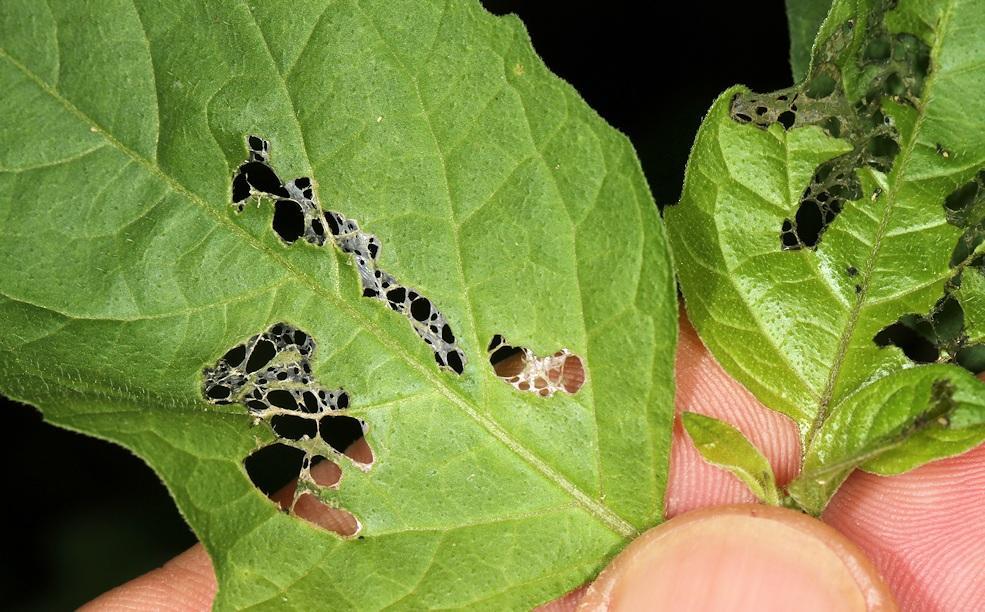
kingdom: Plantae
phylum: Tracheophyta
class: Magnoliopsida
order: Solanales
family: Solanaceae
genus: Solanum
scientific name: Solanum americanum
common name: American black nightshade
